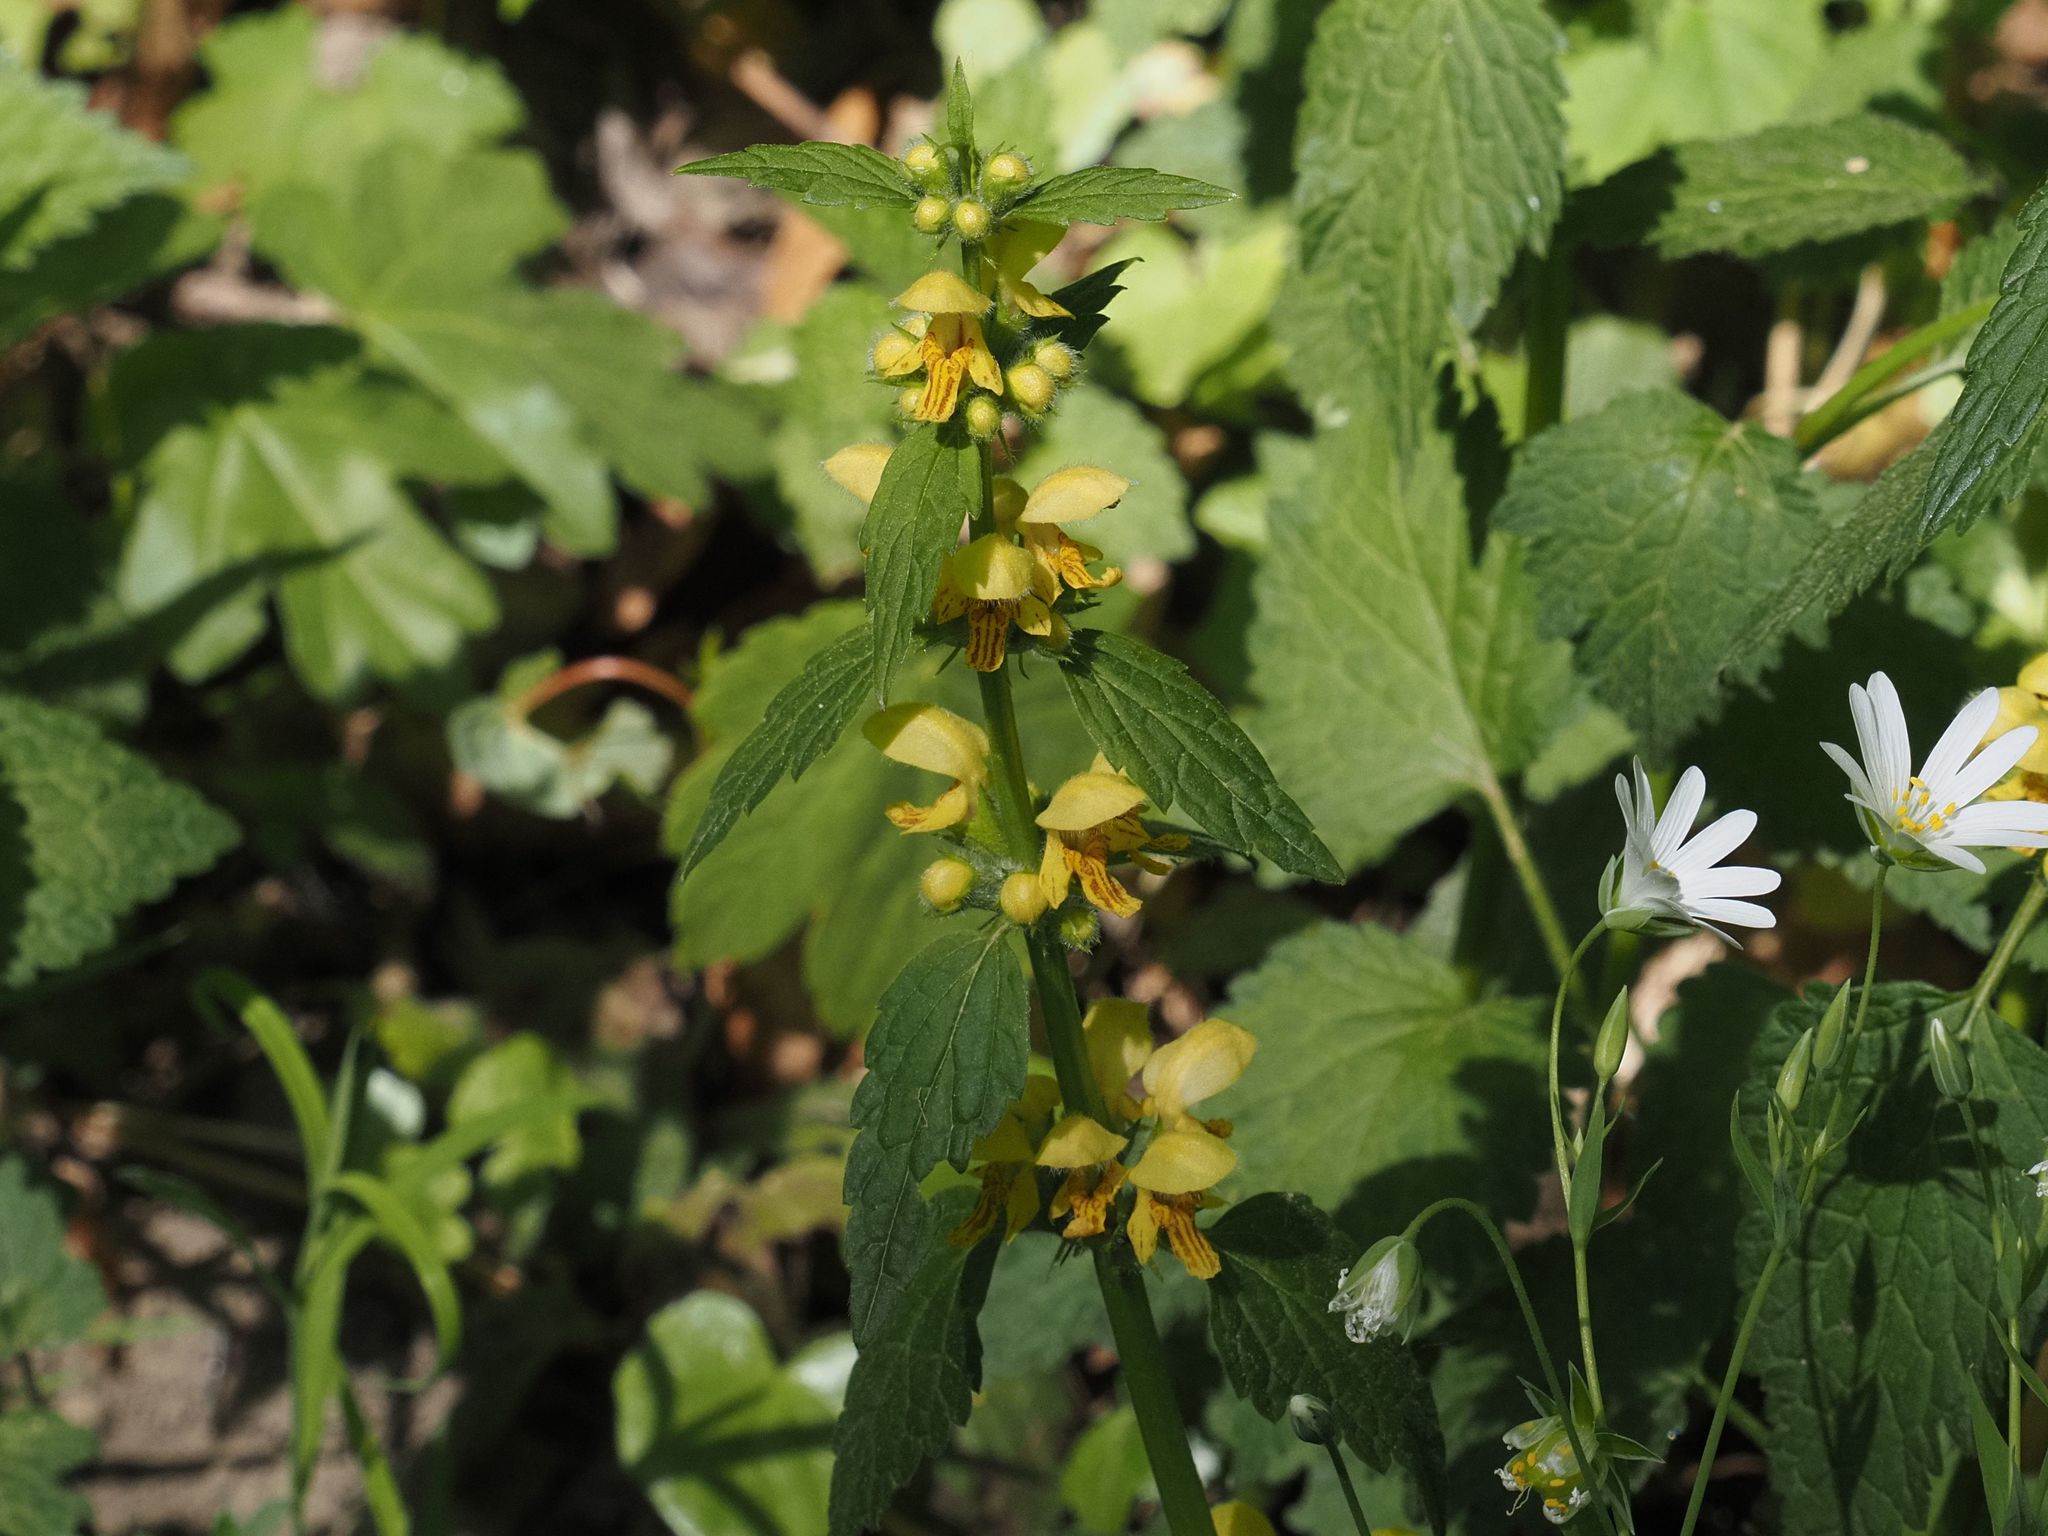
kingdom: Plantae
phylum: Tracheophyta
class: Magnoliopsida
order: Lamiales
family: Lamiaceae
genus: Lamium
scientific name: Lamium galeobdolon
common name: Yellow archangel
